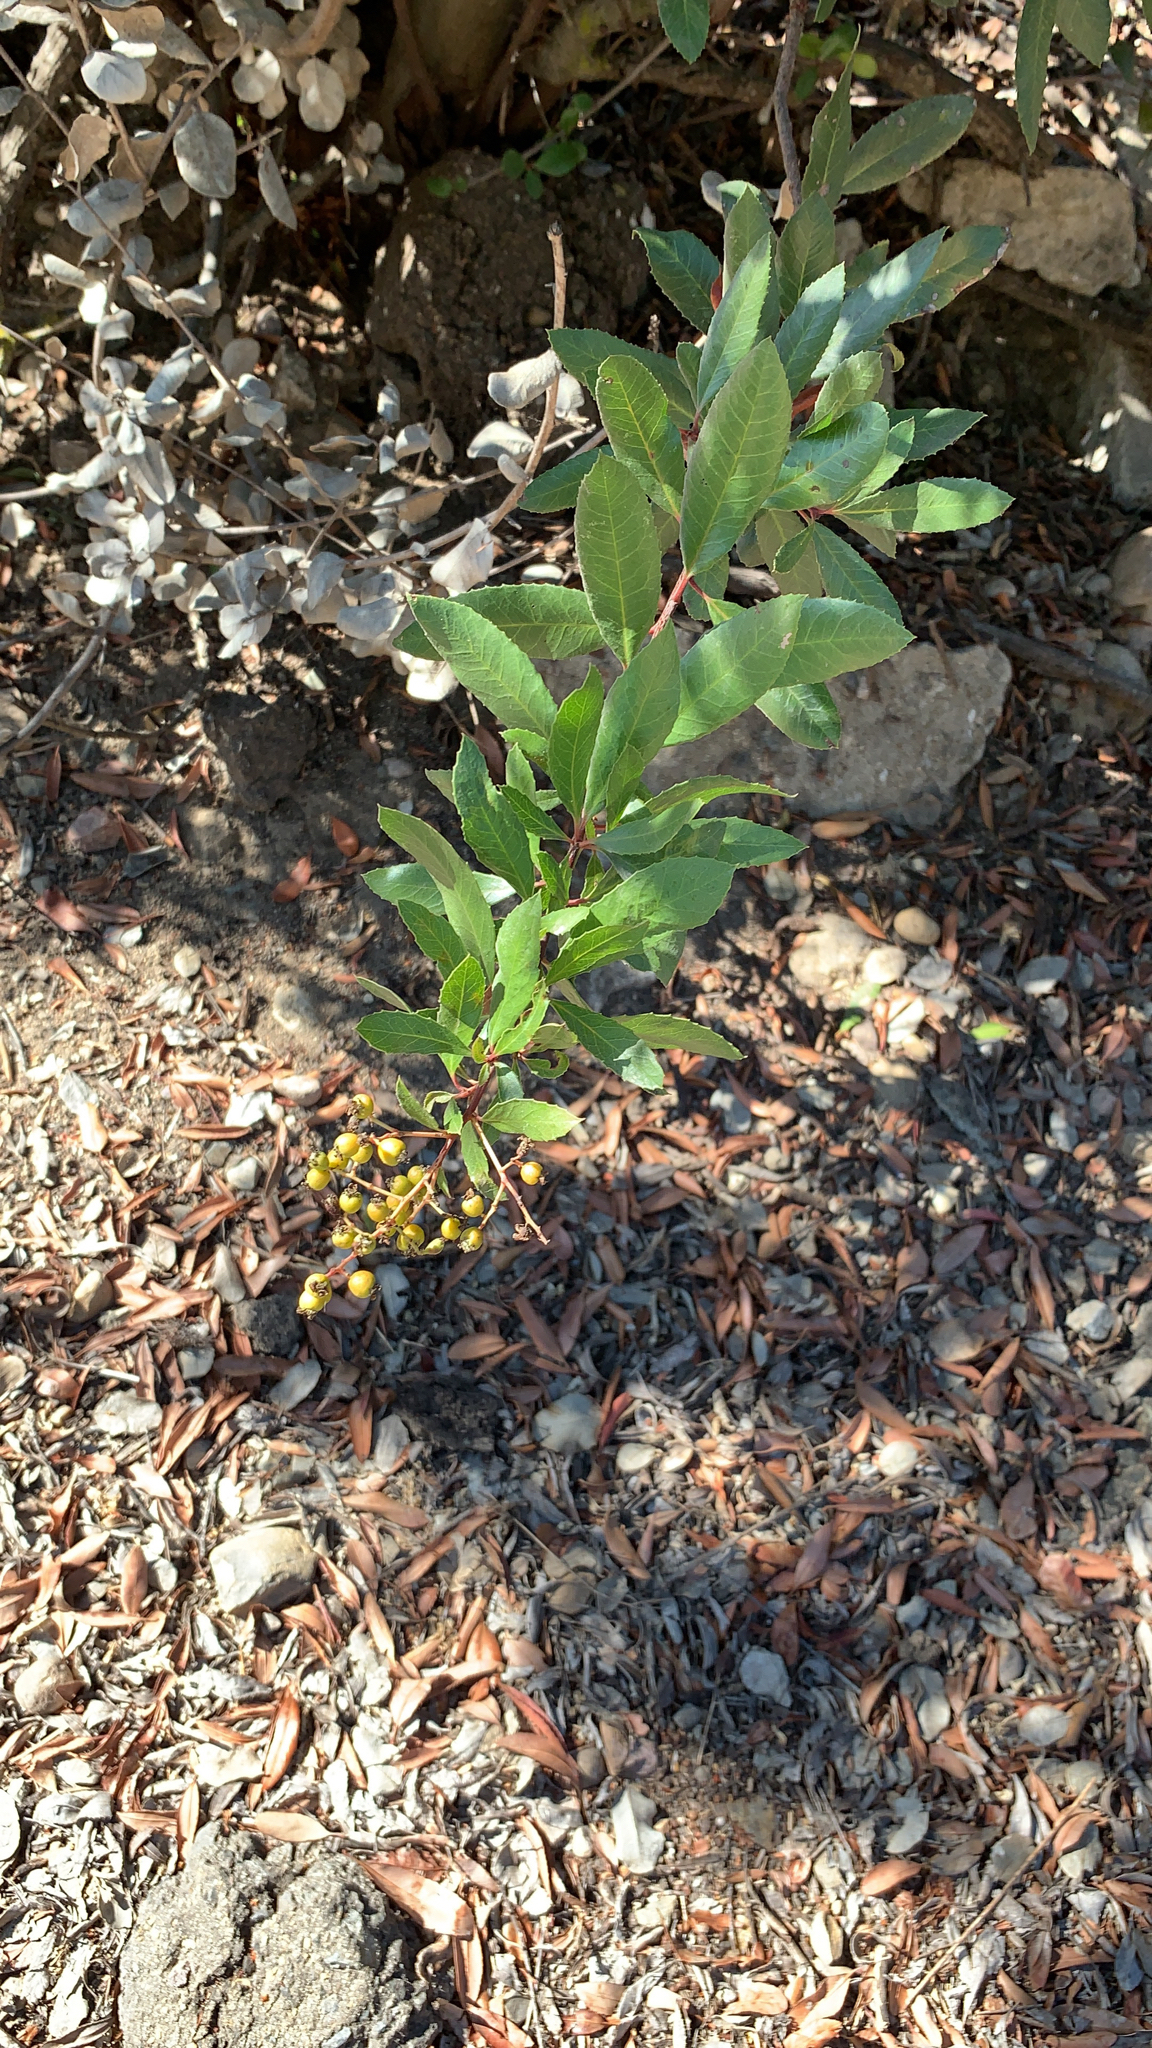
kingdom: Plantae
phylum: Tracheophyta
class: Magnoliopsida
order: Rosales
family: Rosaceae
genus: Heteromeles
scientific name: Heteromeles arbutifolia
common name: California-holly
